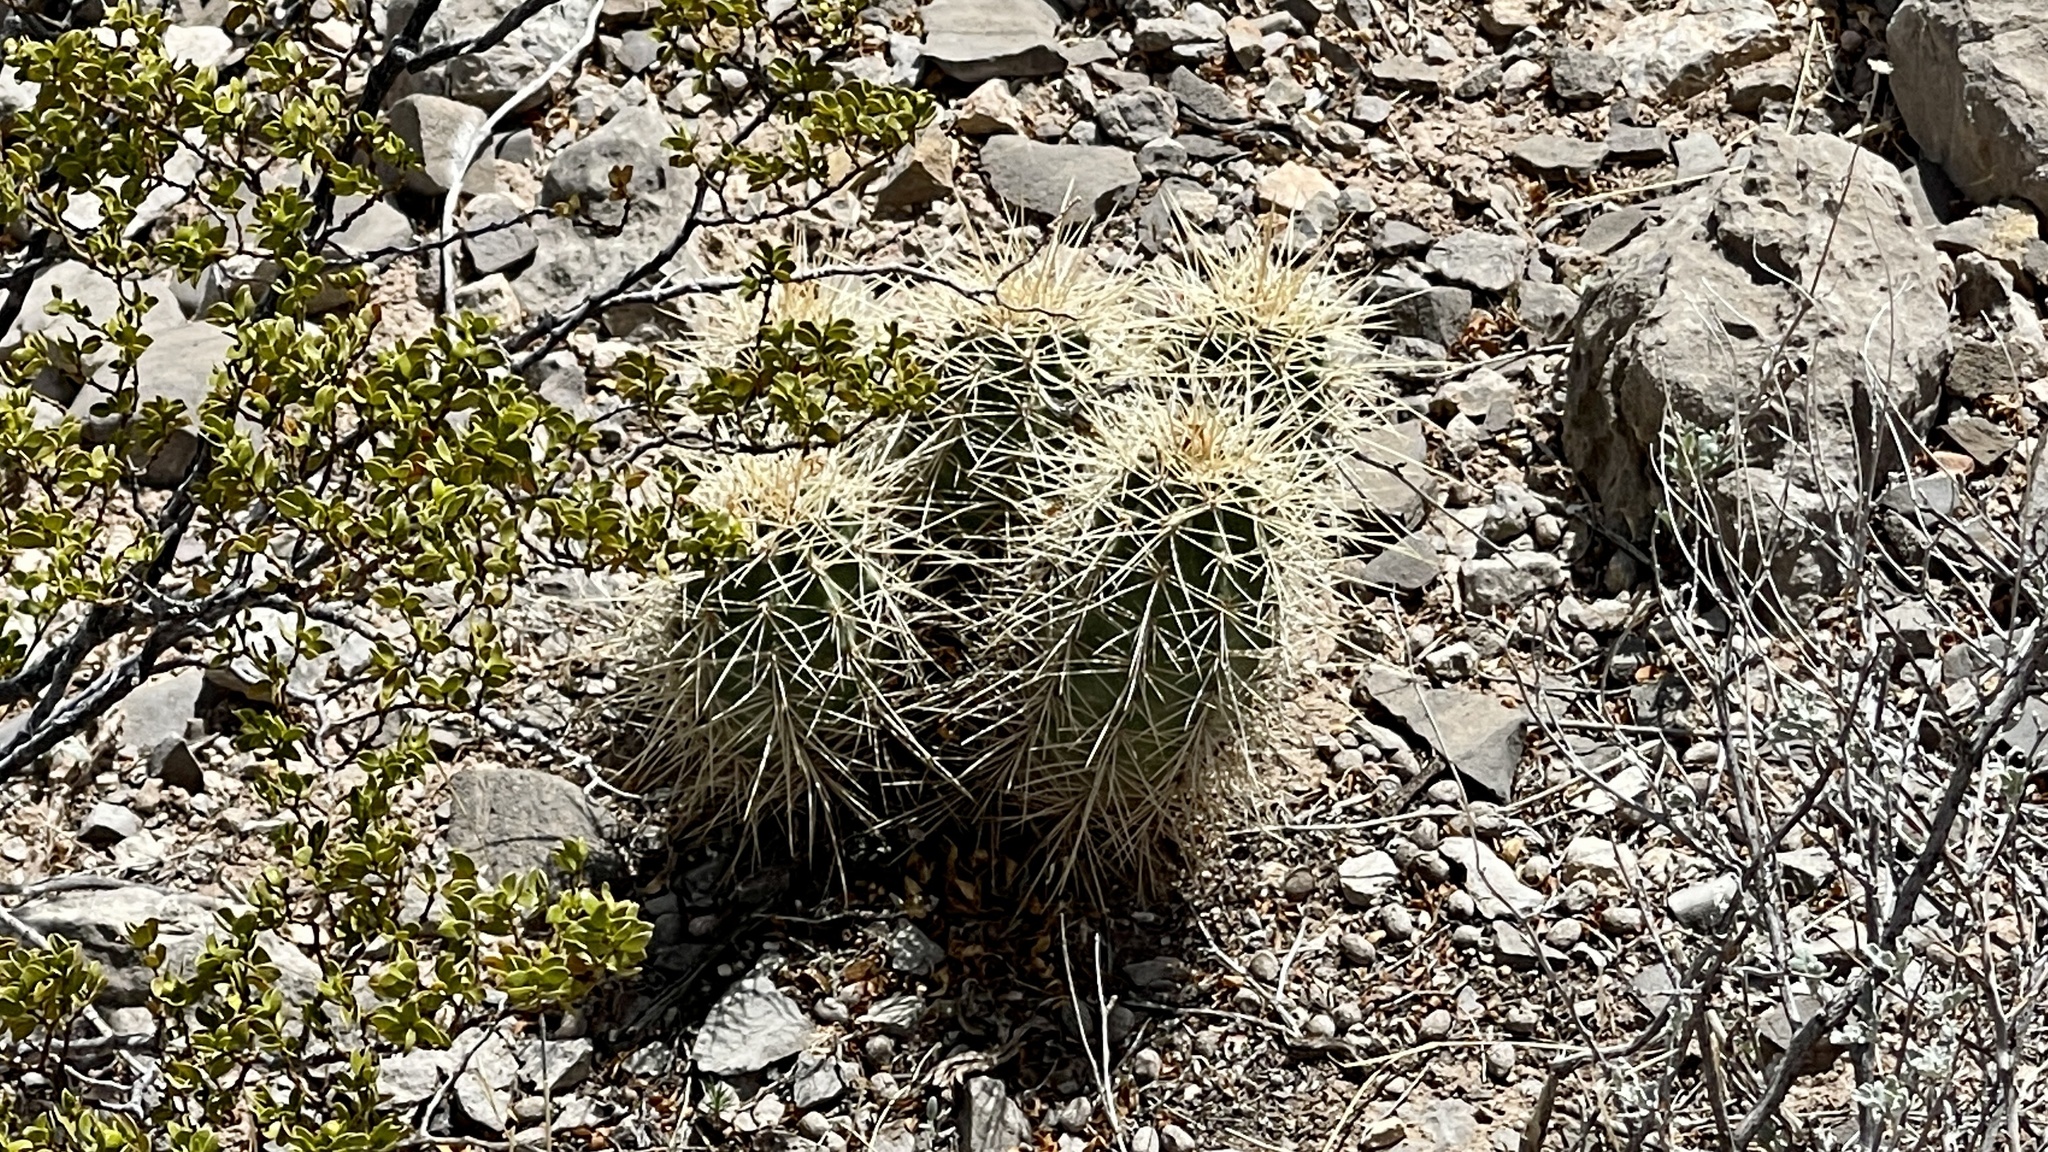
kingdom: Plantae
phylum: Tracheophyta
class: Magnoliopsida
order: Caryophyllales
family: Cactaceae
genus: Echinocereus
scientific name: Echinocereus coccineus
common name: Scarlet hedgehog cactus
